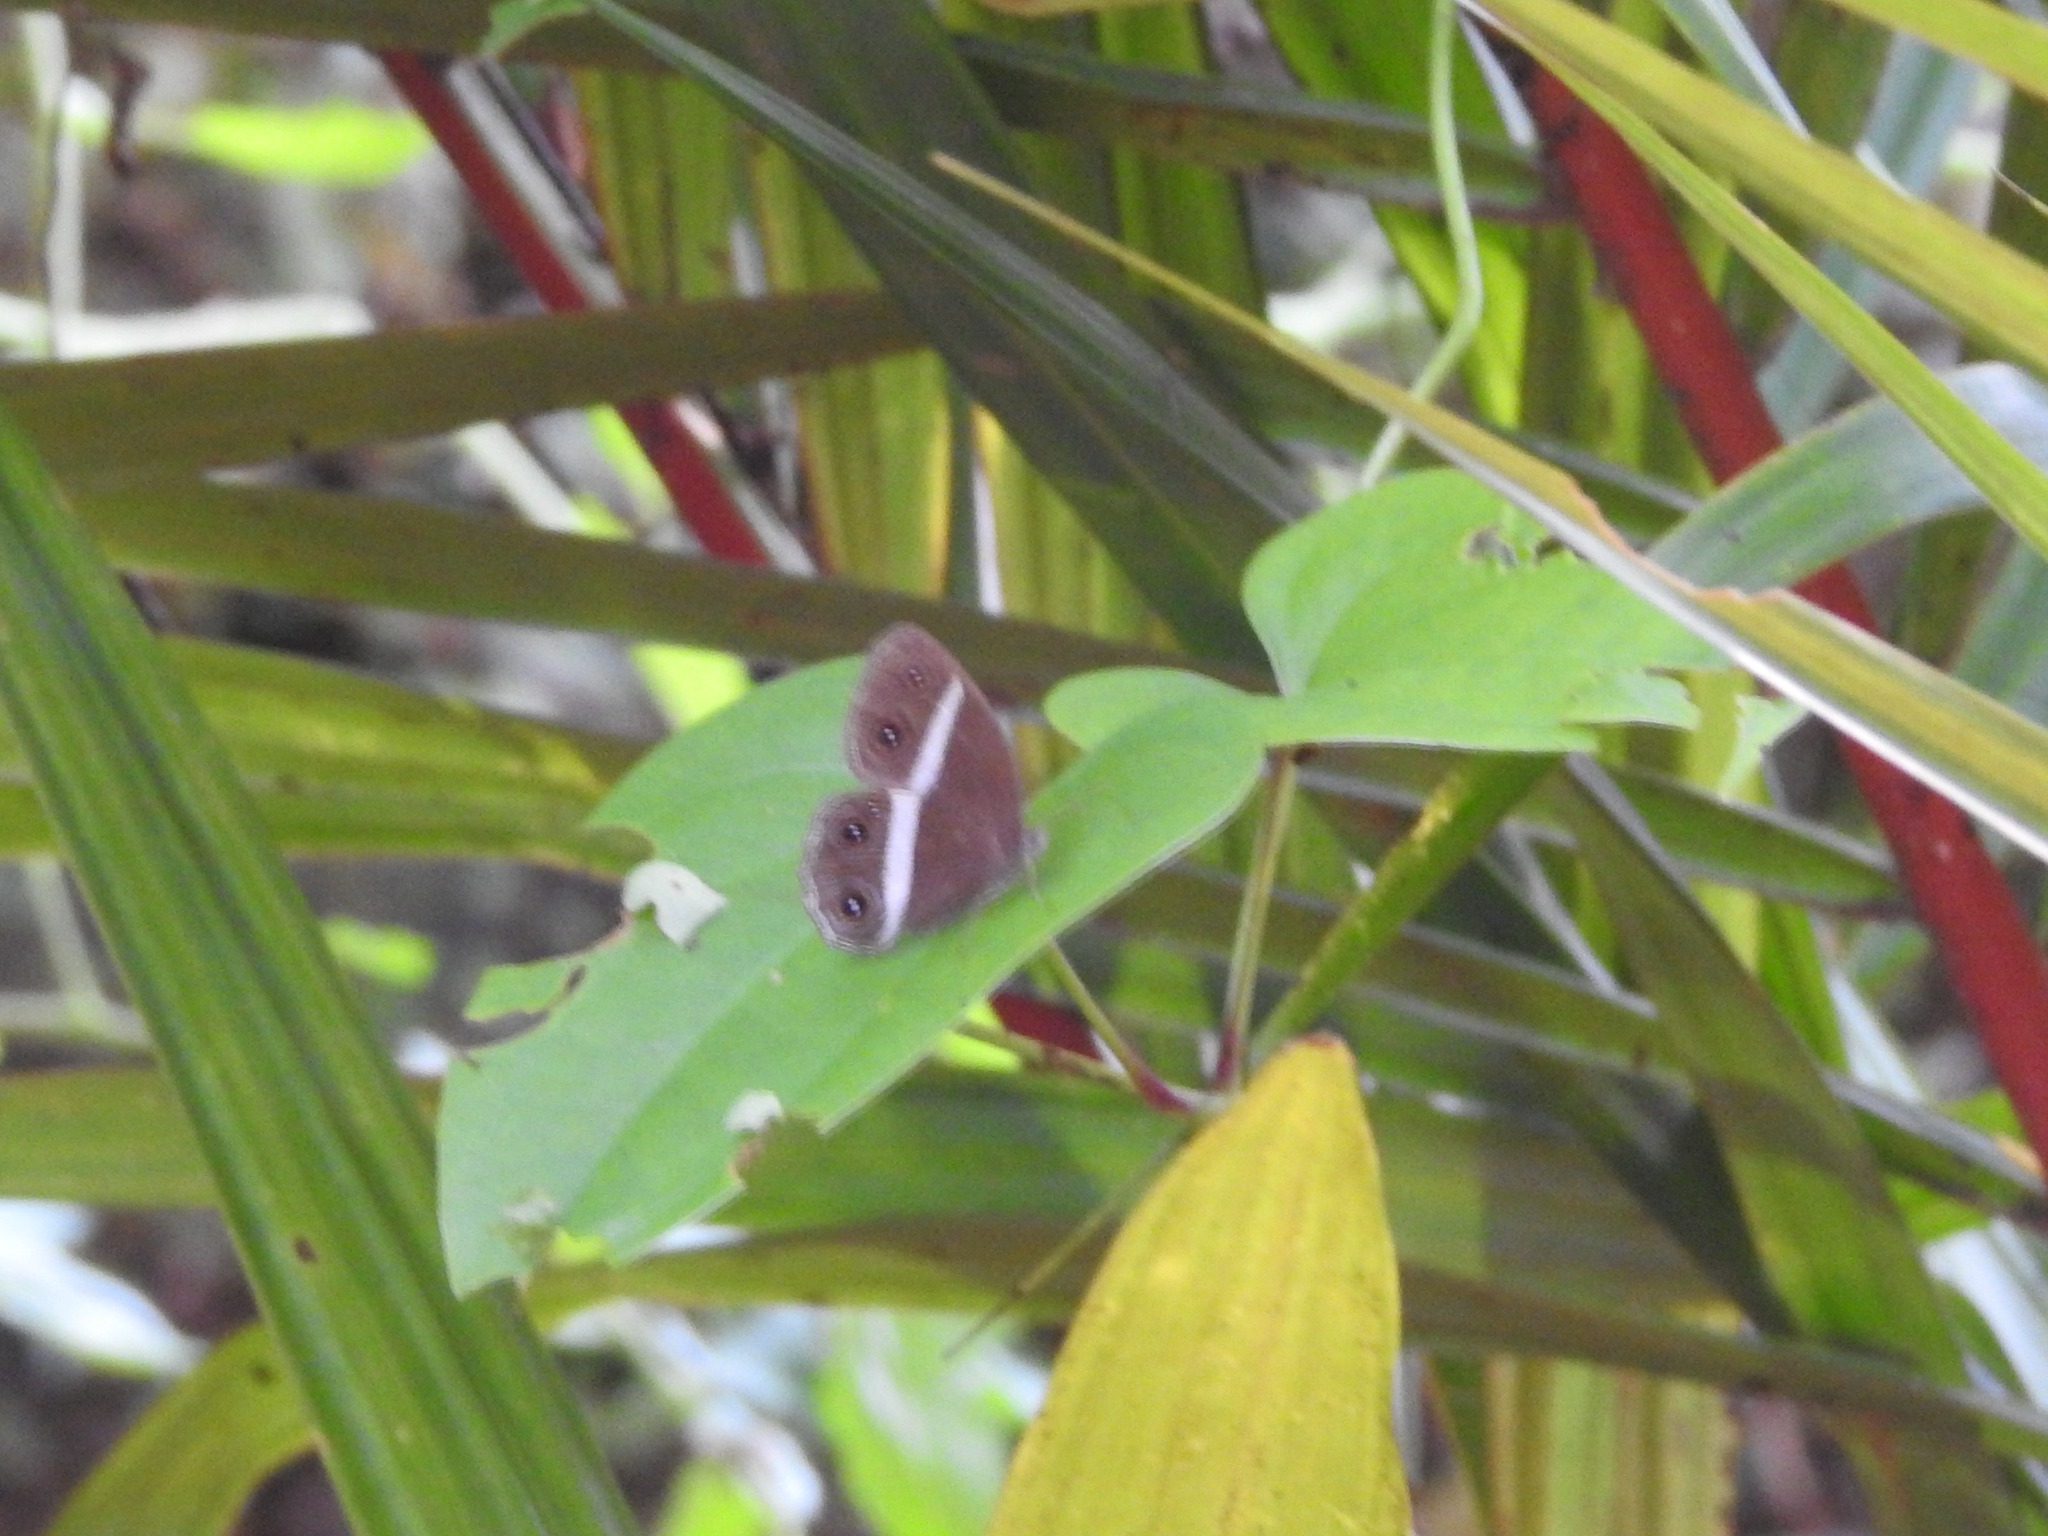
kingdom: Animalia
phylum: Arthropoda
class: Insecta
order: Lepidoptera
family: Nymphalidae
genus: Orsotriaena
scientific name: Orsotriaena medus
